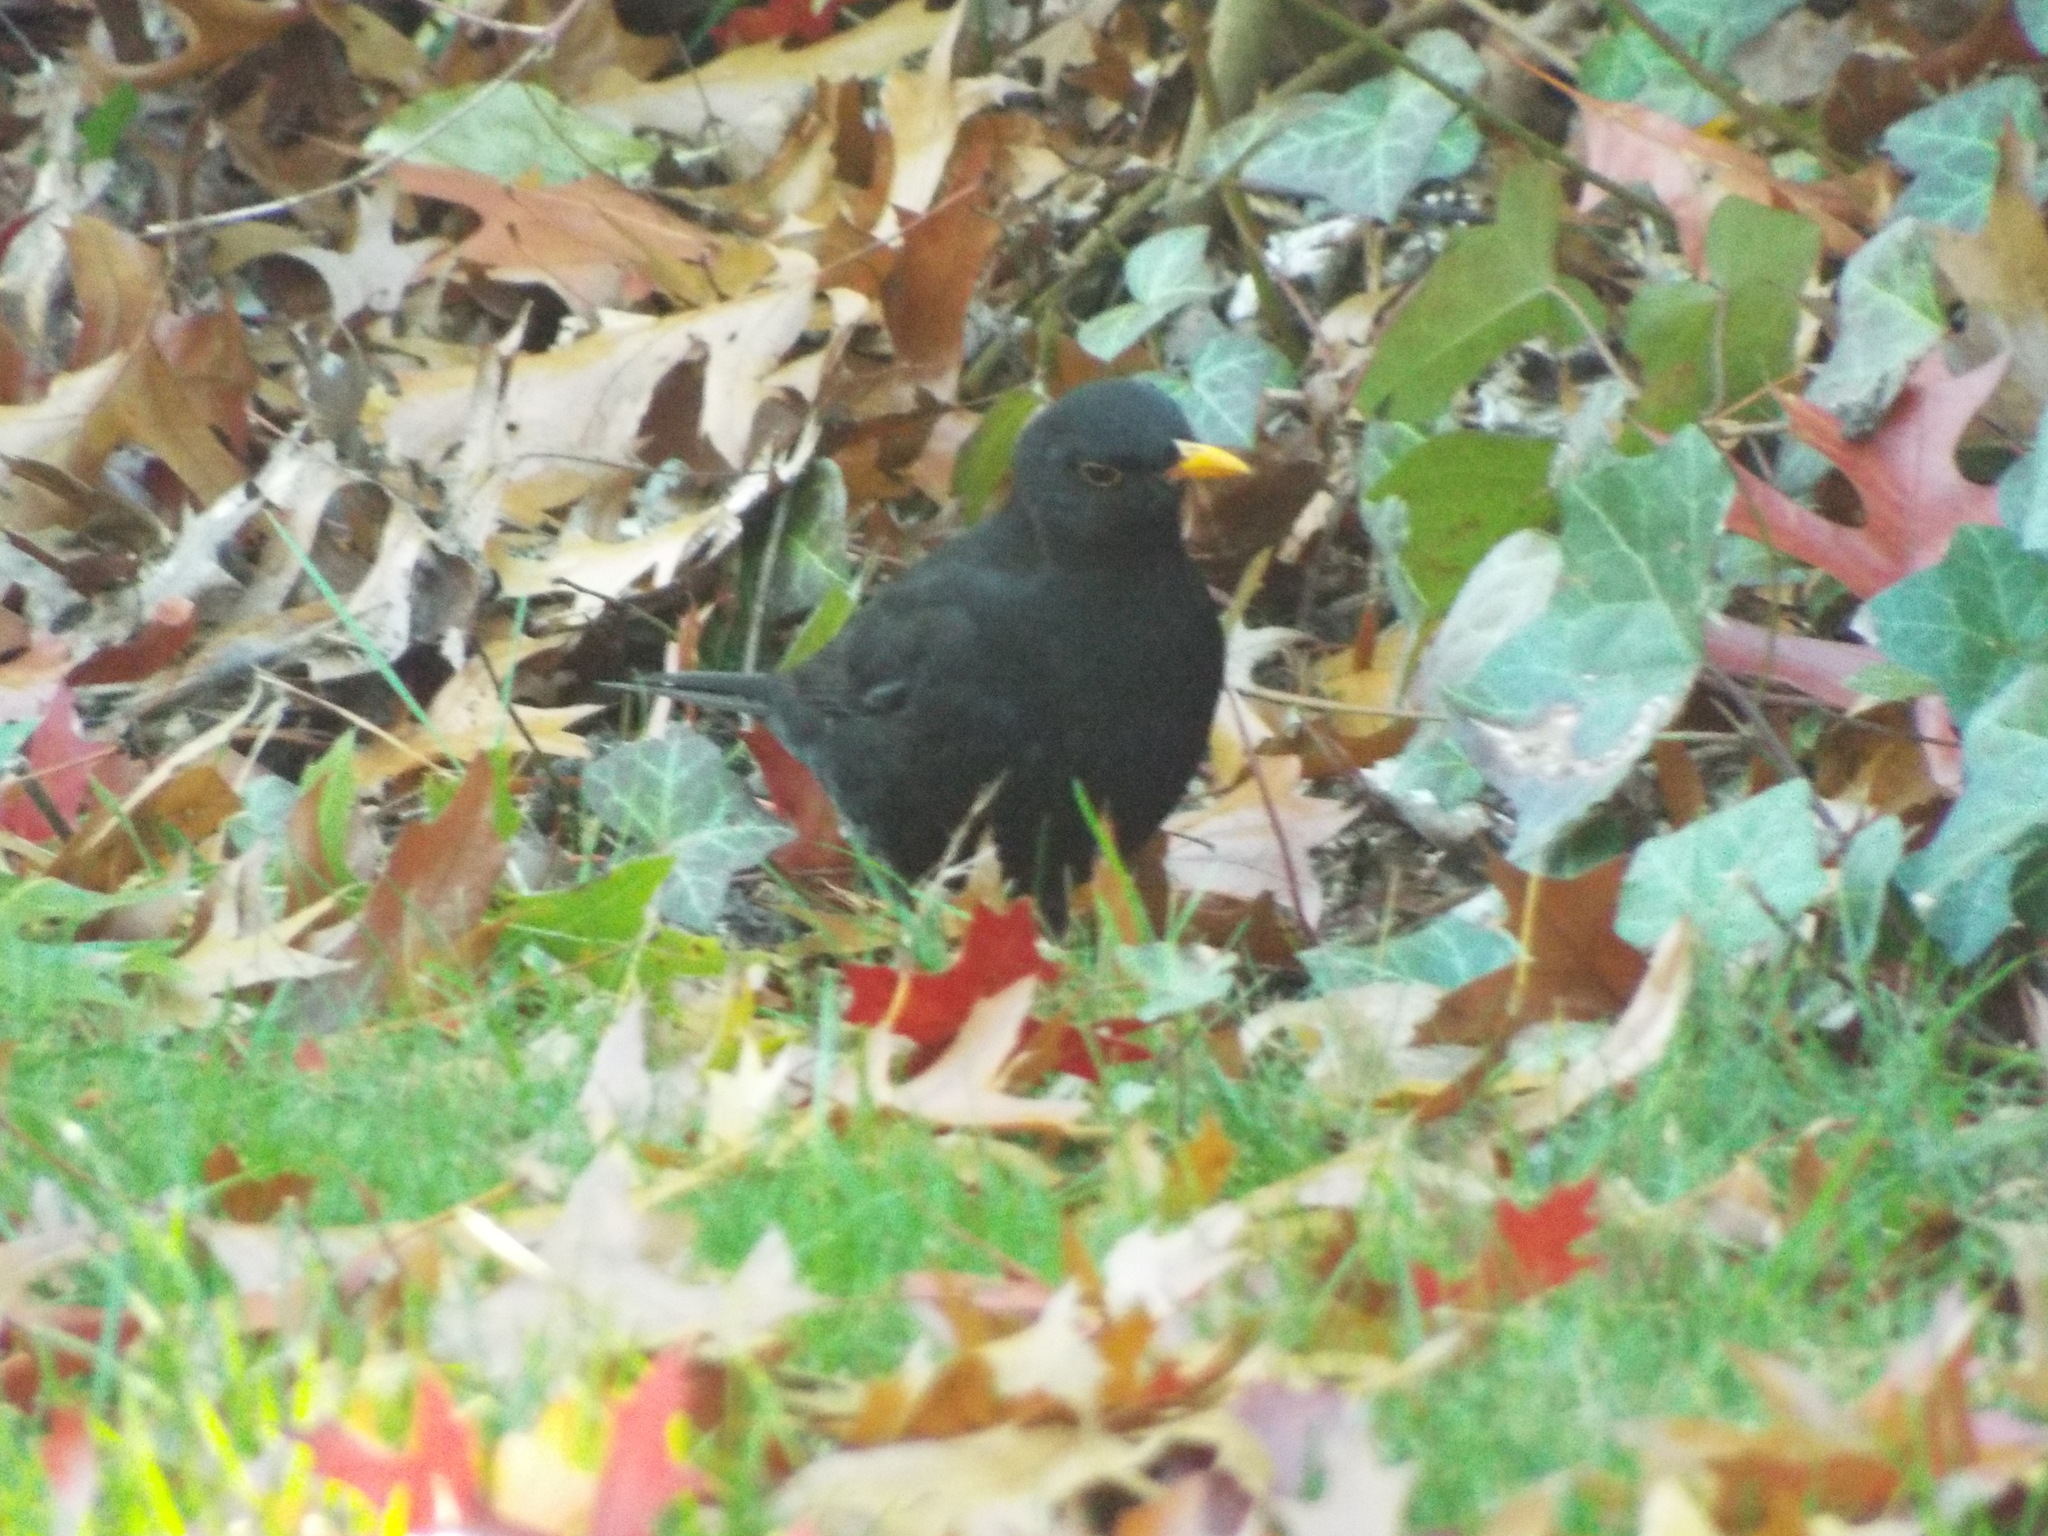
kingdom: Animalia
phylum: Chordata
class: Aves
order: Passeriformes
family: Turdidae
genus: Turdus
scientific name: Turdus merula
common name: Common blackbird
